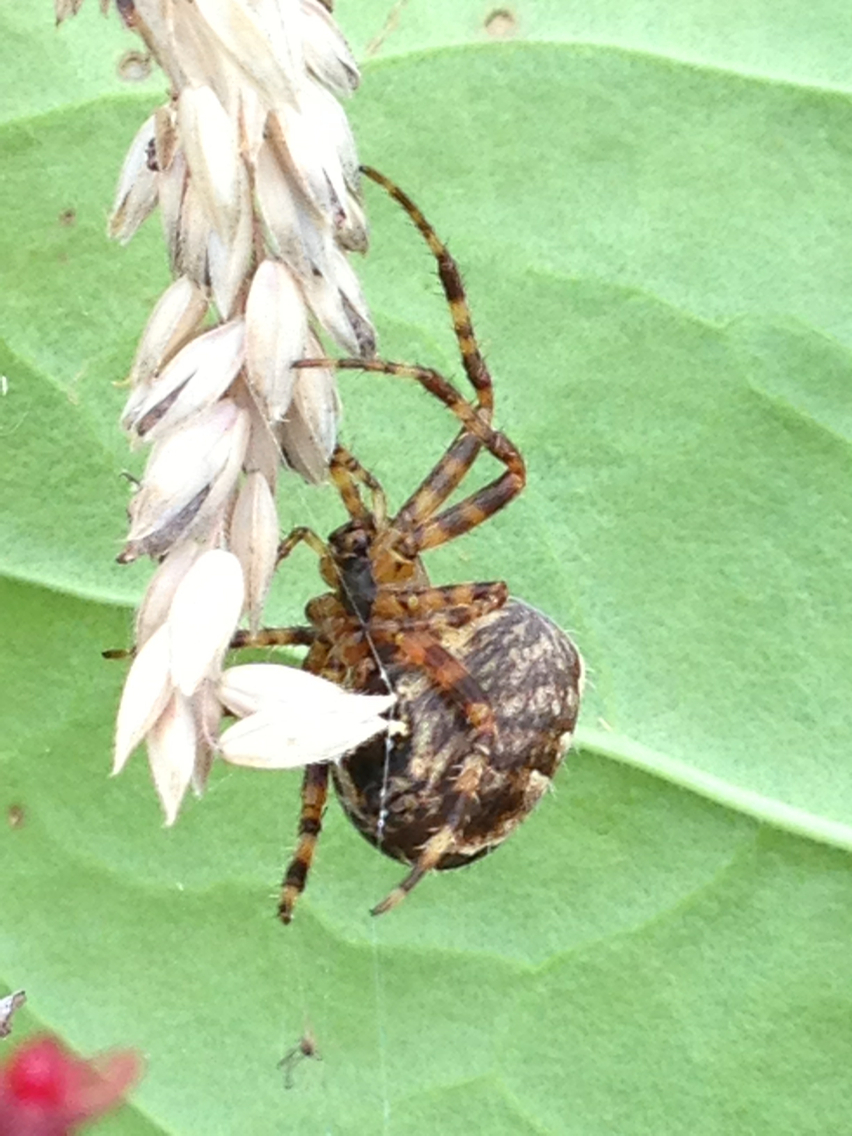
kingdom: Animalia
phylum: Arthropoda
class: Arachnida
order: Araneae
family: Araneidae
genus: Araneus
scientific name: Araneus diadematus
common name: Cross orbweaver
